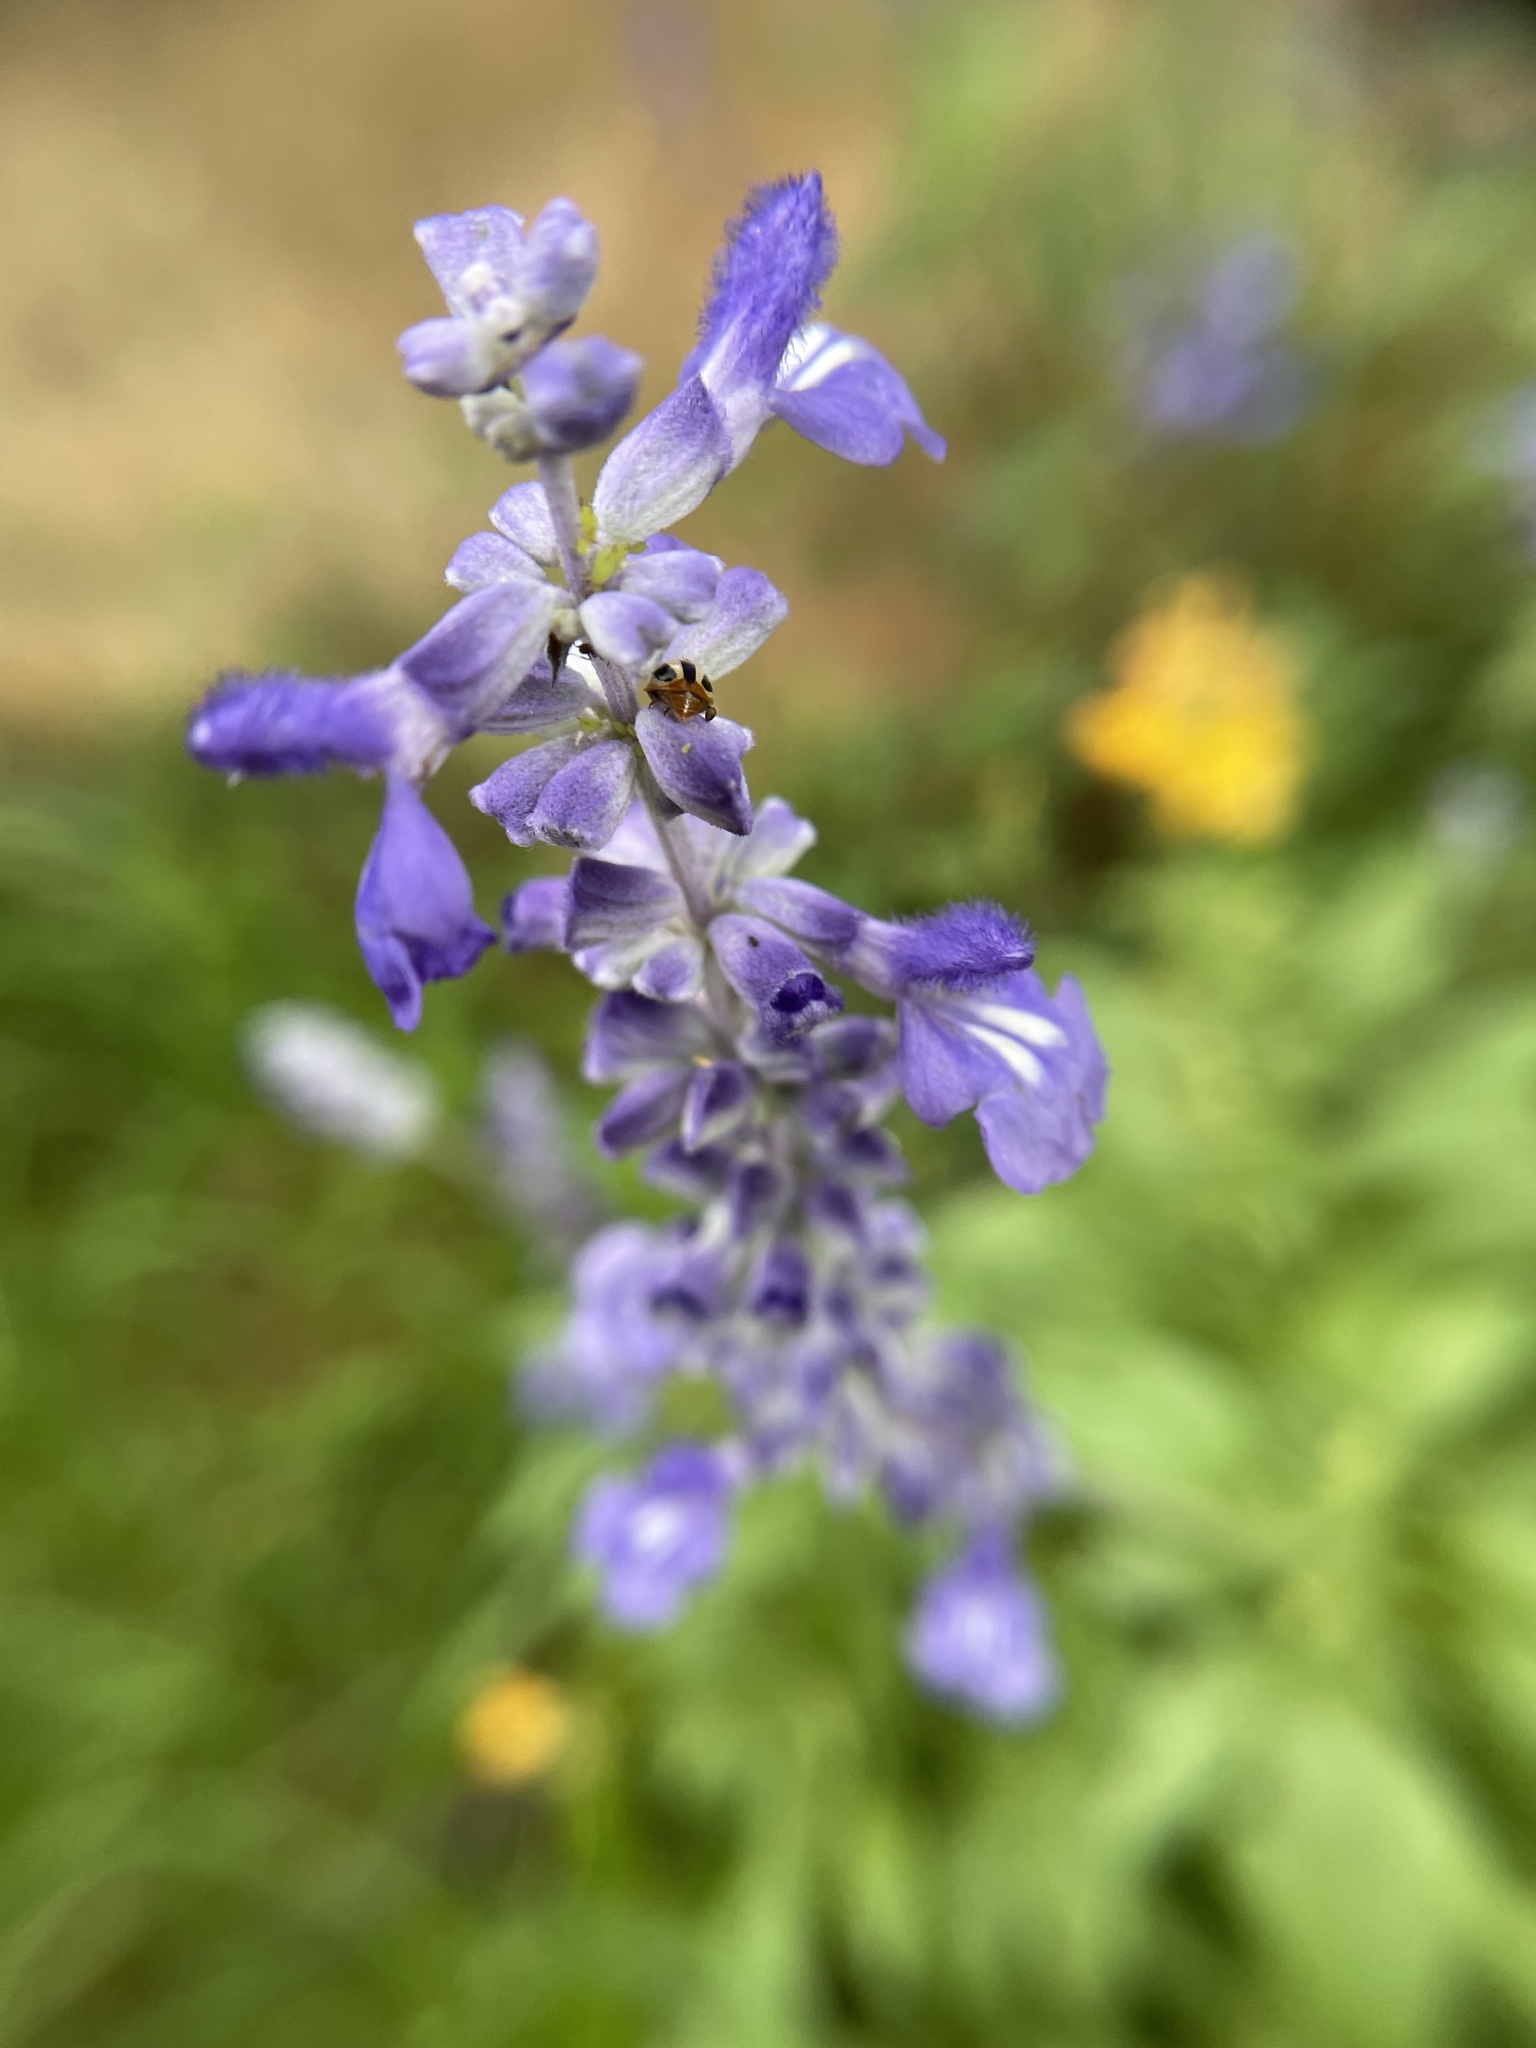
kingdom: Plantae
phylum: Tracheophyta
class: Magnoliopsida
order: Lamiales
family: Lamiaceae
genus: Salvia
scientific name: Salvia farinacea
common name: Mealy sage
